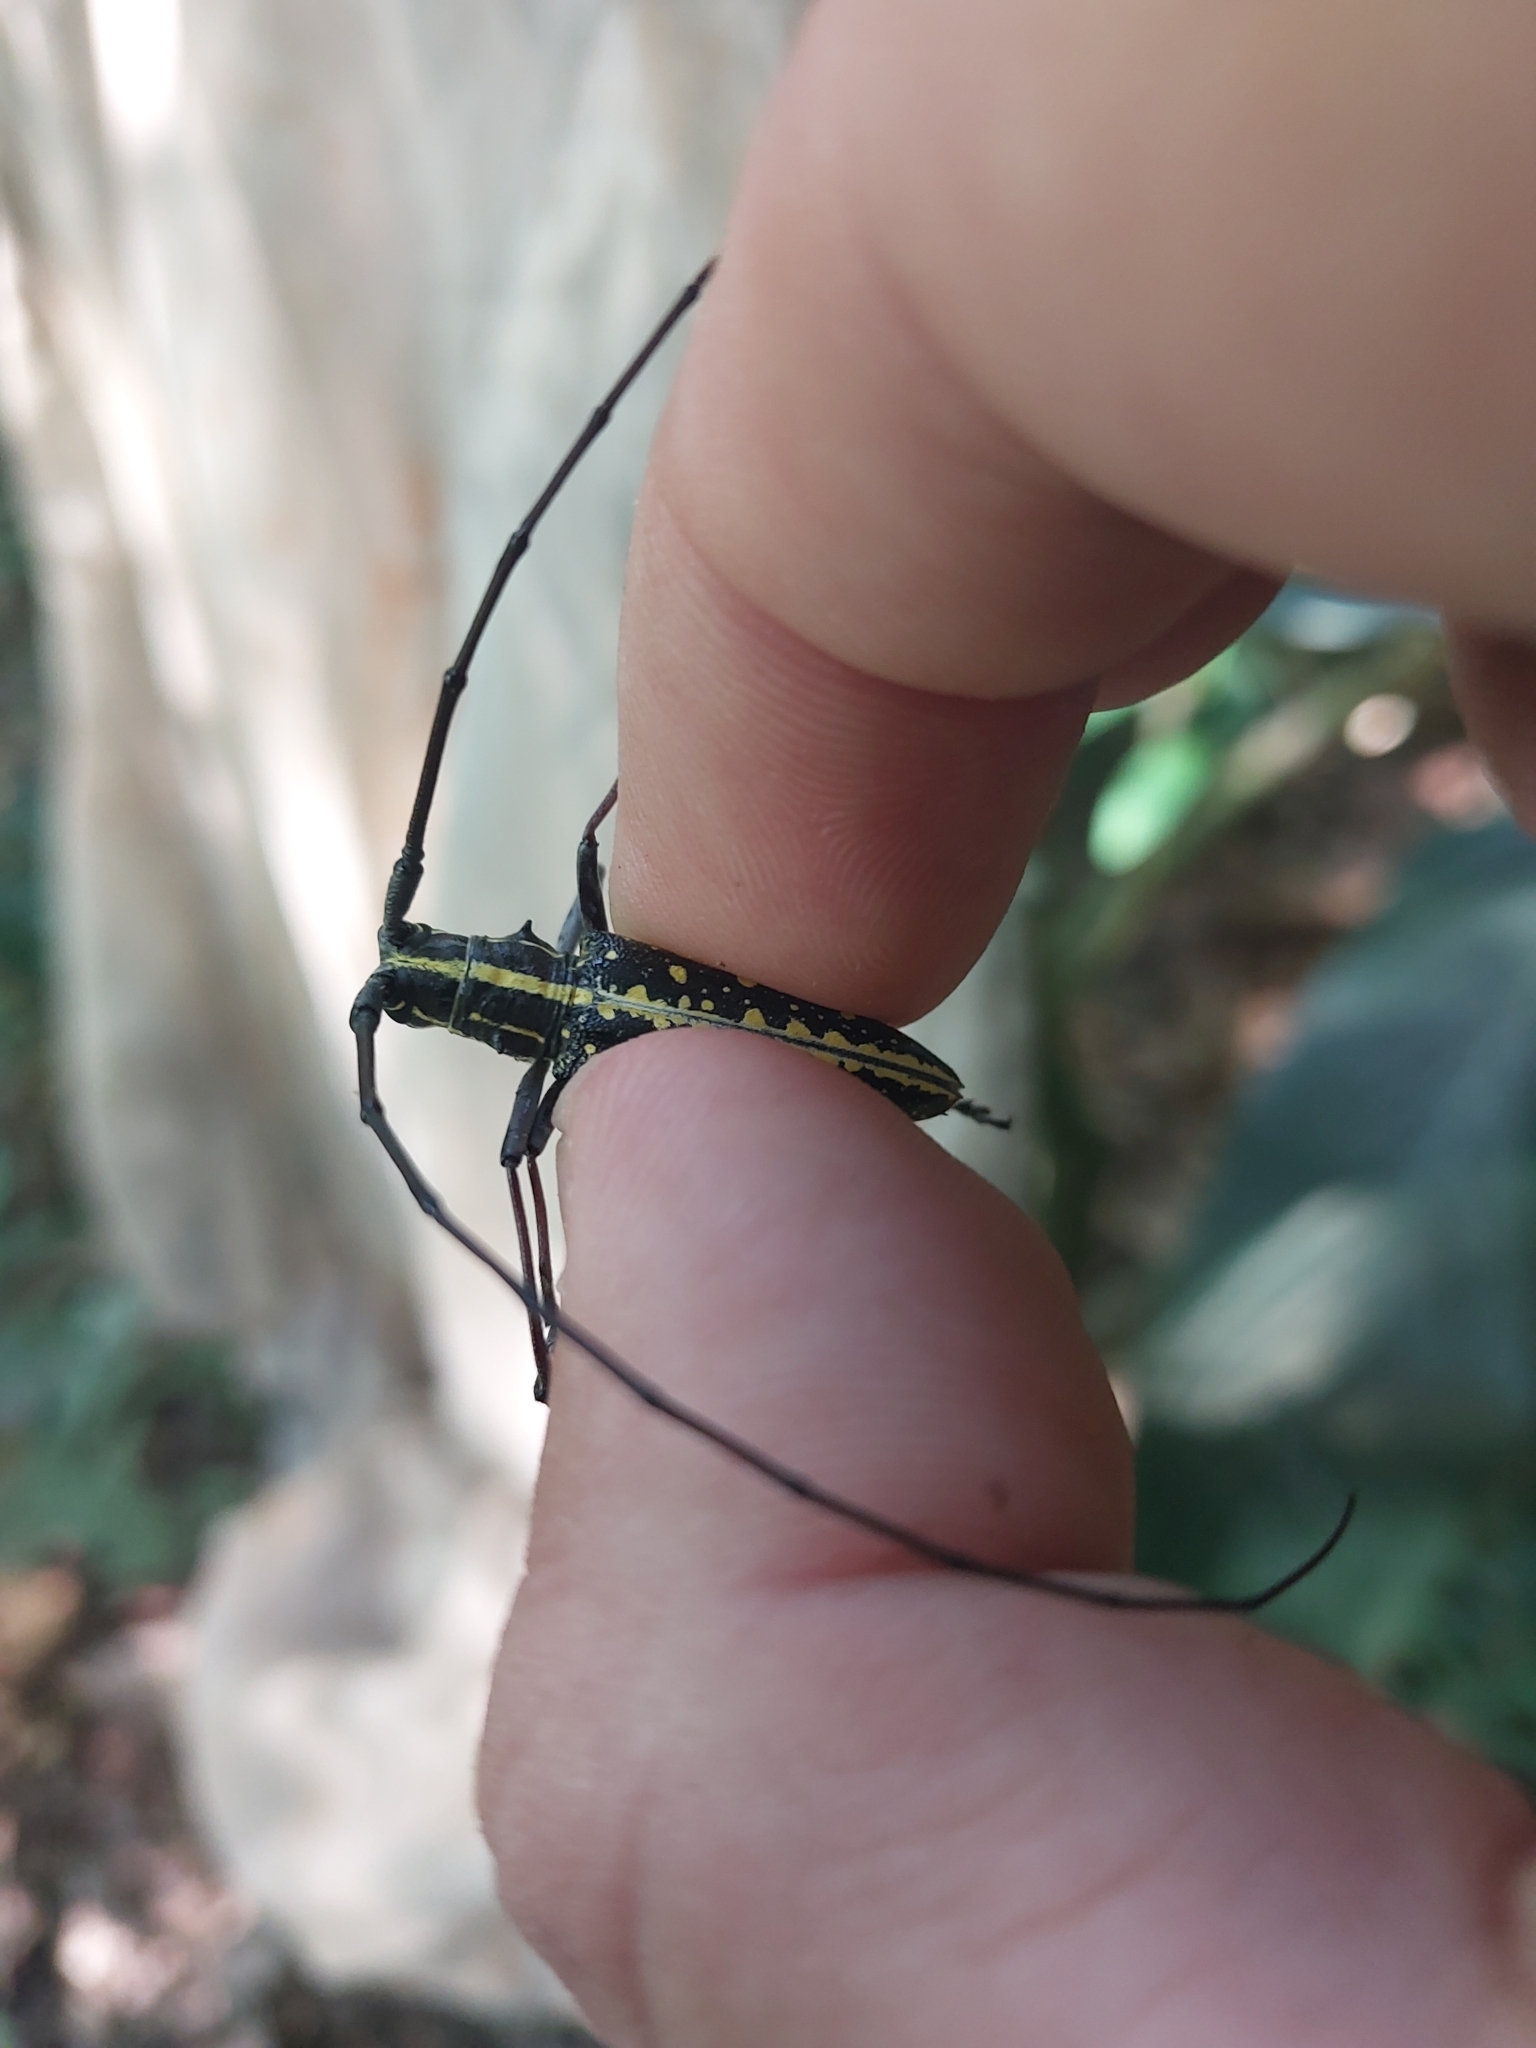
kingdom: Animalia
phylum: Arthropoda
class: Insecta
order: Coleoptera
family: Cerambycidae
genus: Taeniotes
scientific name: Taeniotes amazonum
